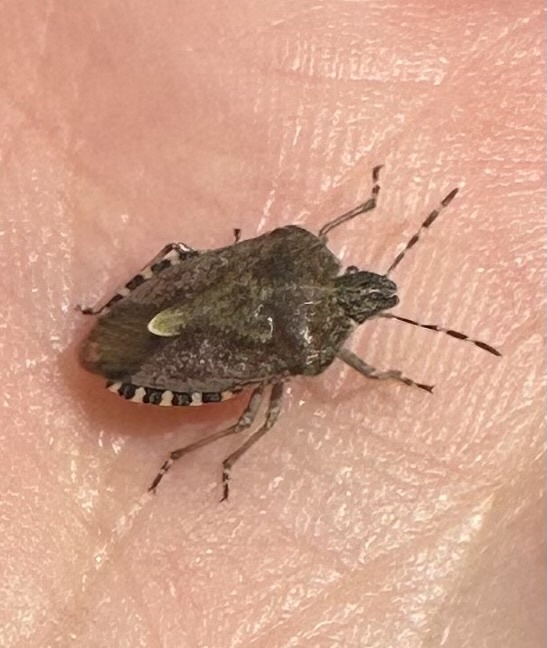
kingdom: Animalia
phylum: Arthropoda
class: Insecta
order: Hemiptera
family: Pentatomidae
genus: Dolycoris
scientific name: Dolycoris baccarum
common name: Sloe bug
